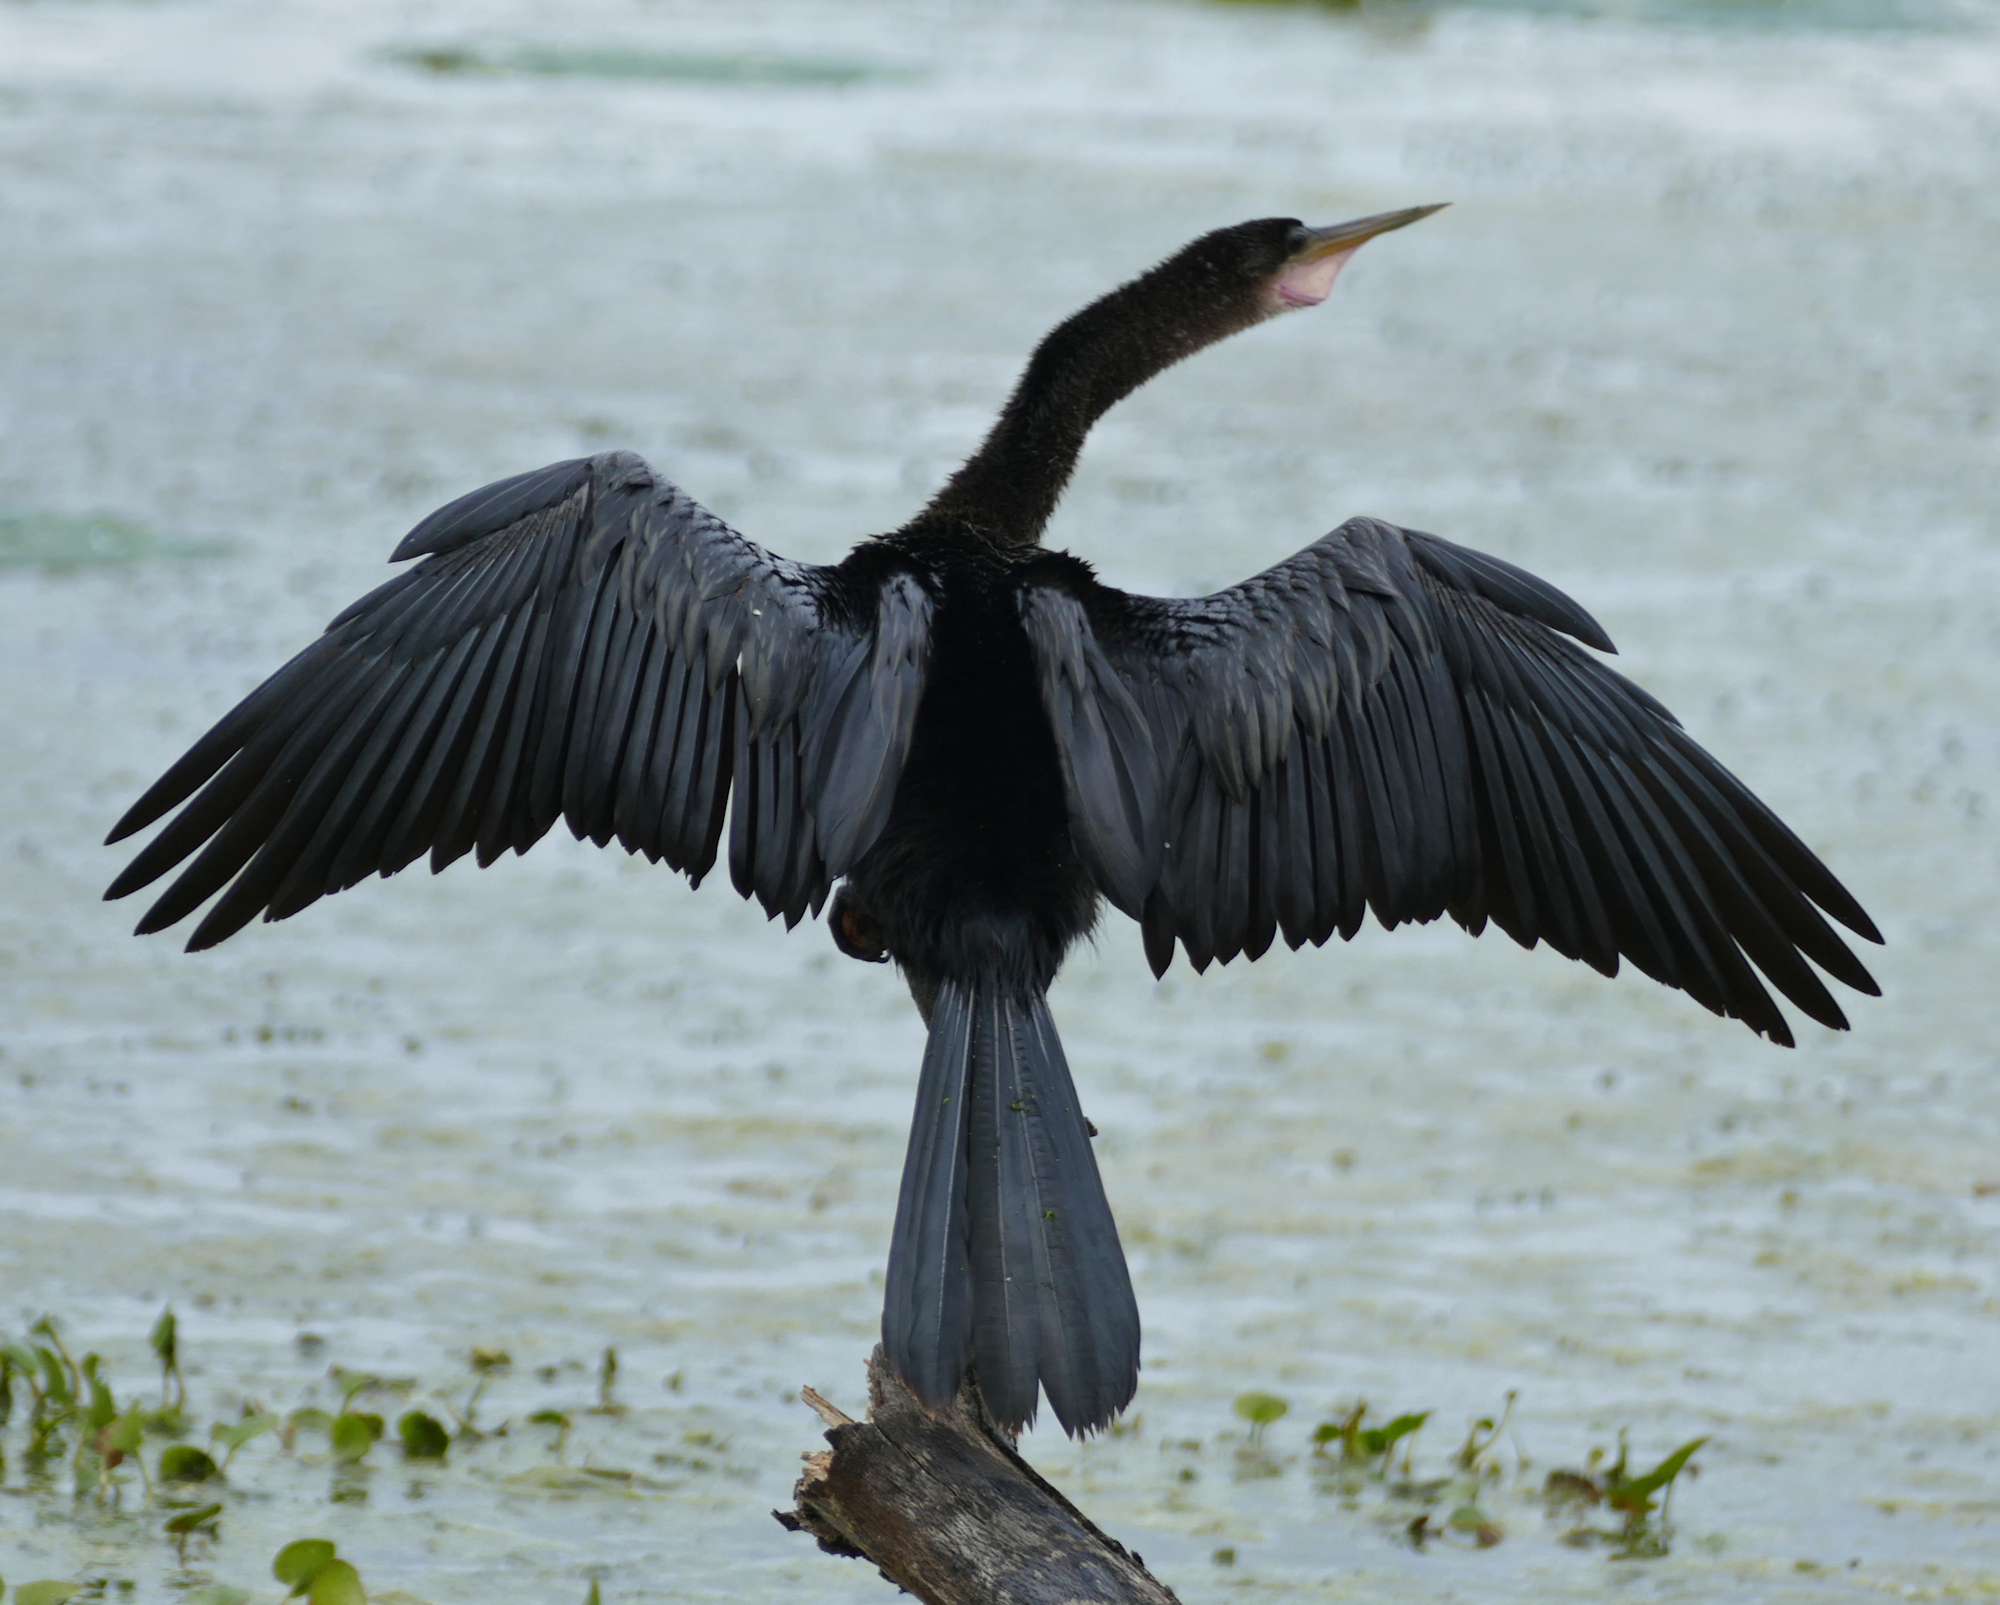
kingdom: Animalia
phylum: Chordata
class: Aves
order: Suliformes
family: Anhingidae
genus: Anhinga
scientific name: Anhinga anhinga
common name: Anhinga
